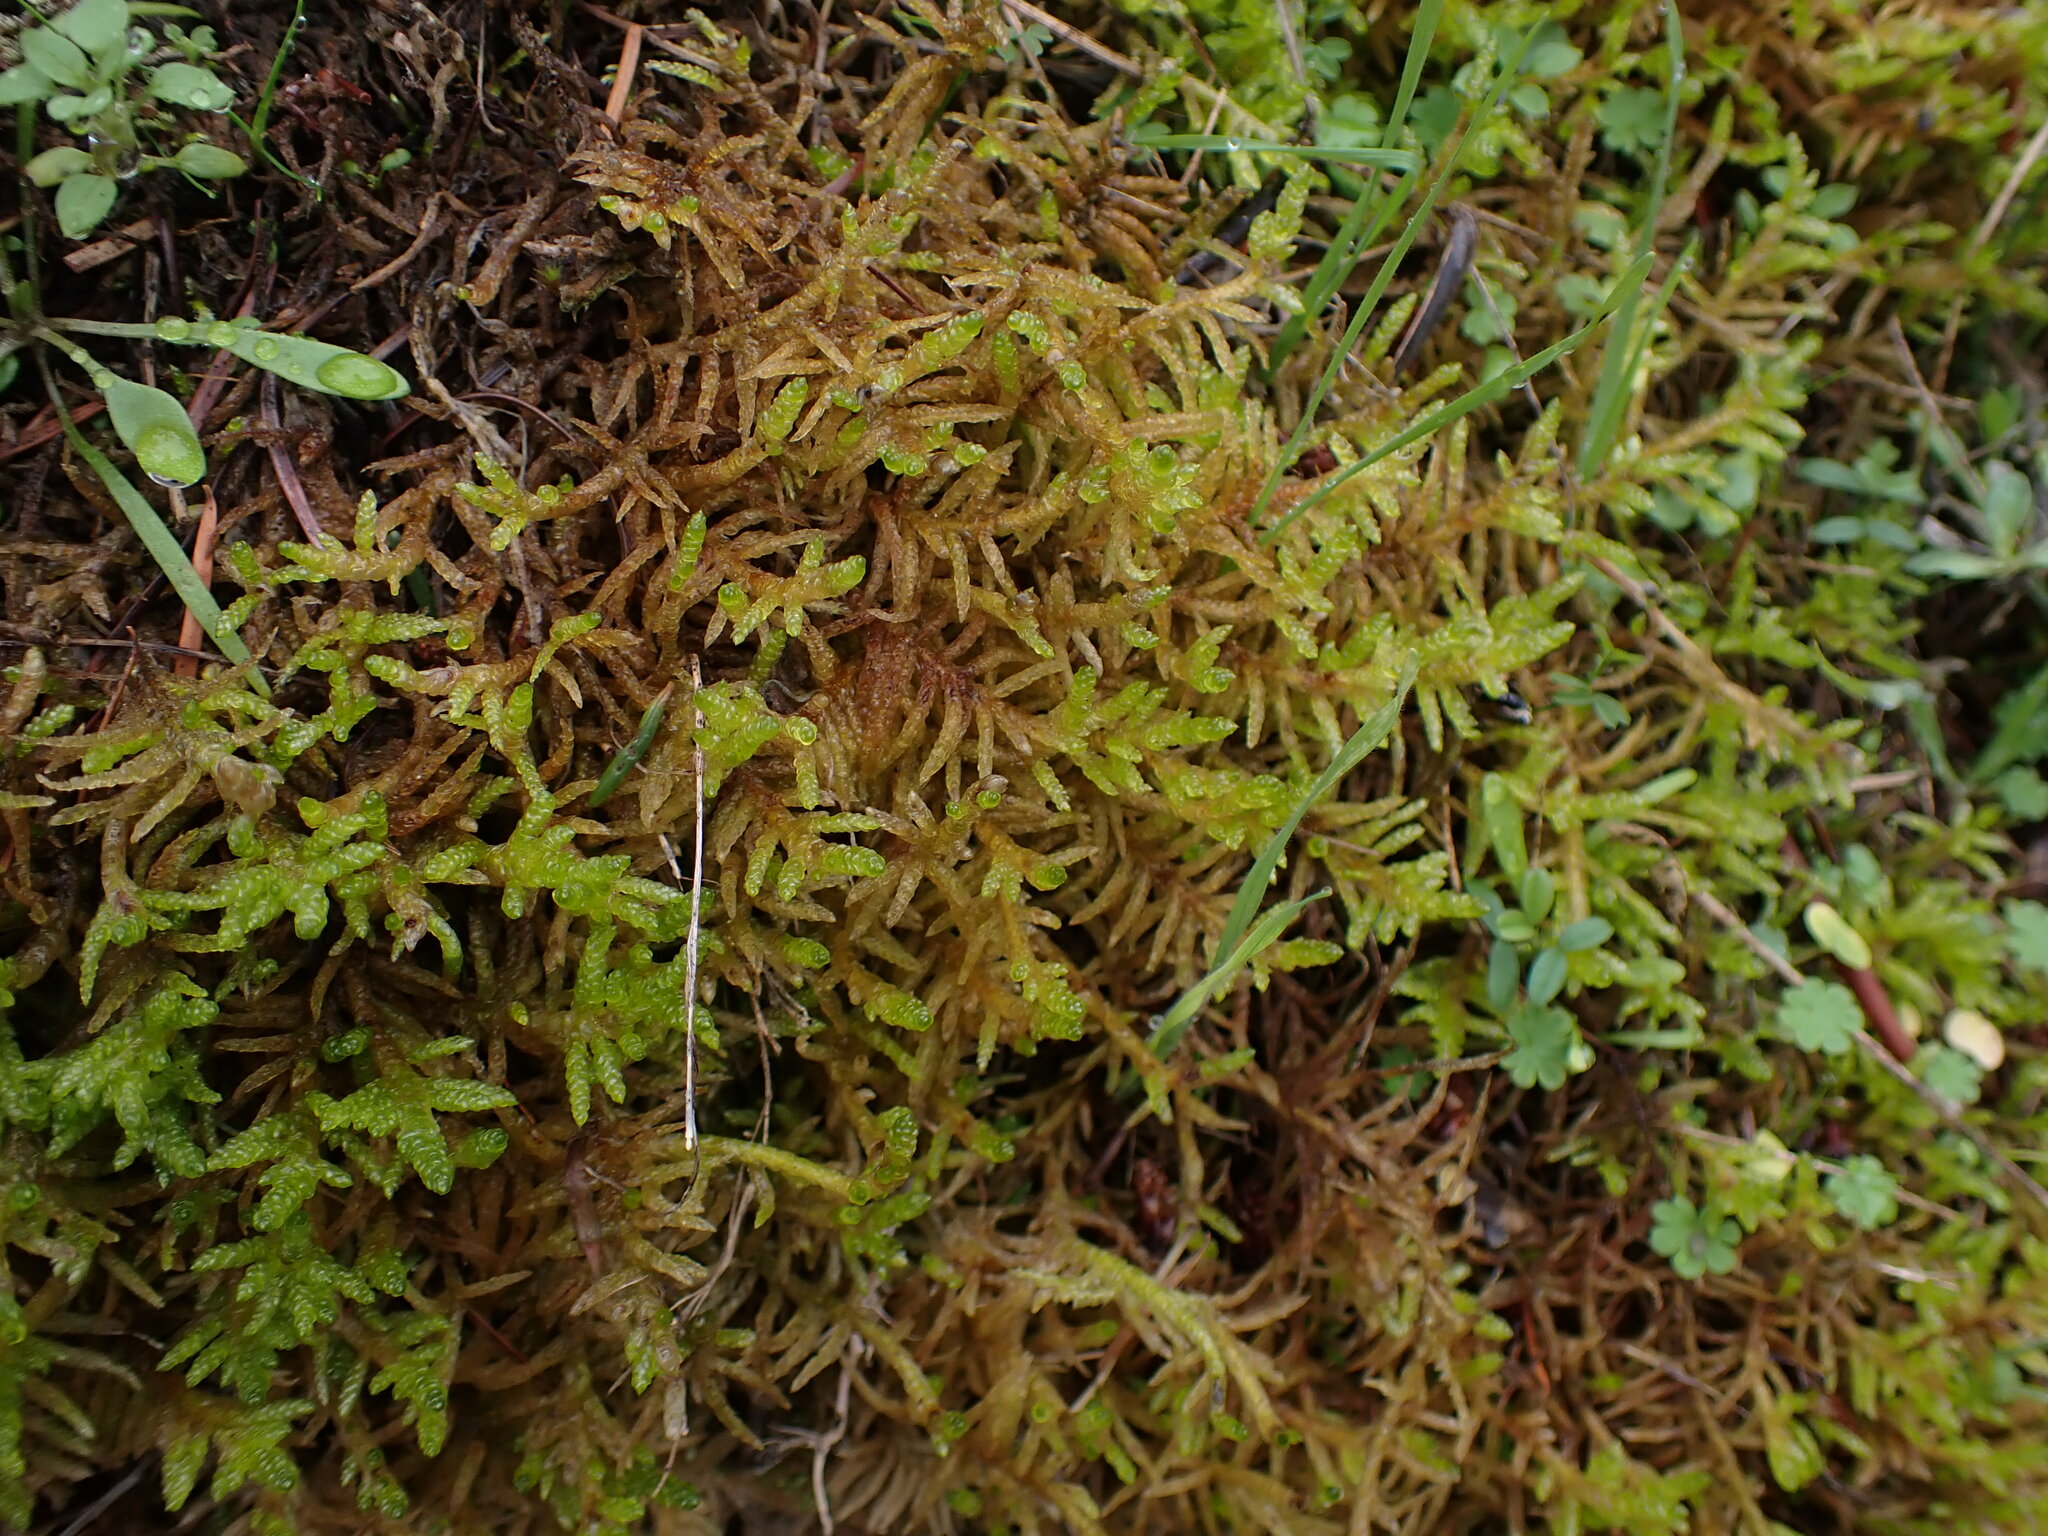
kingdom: Plantae
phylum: Bryophyta
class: Bryopsida
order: Hypnales
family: Brachytheciaceae
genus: Pseudoscleropodium
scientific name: Pseudoscleropodium purum
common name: Neat feather-moss
